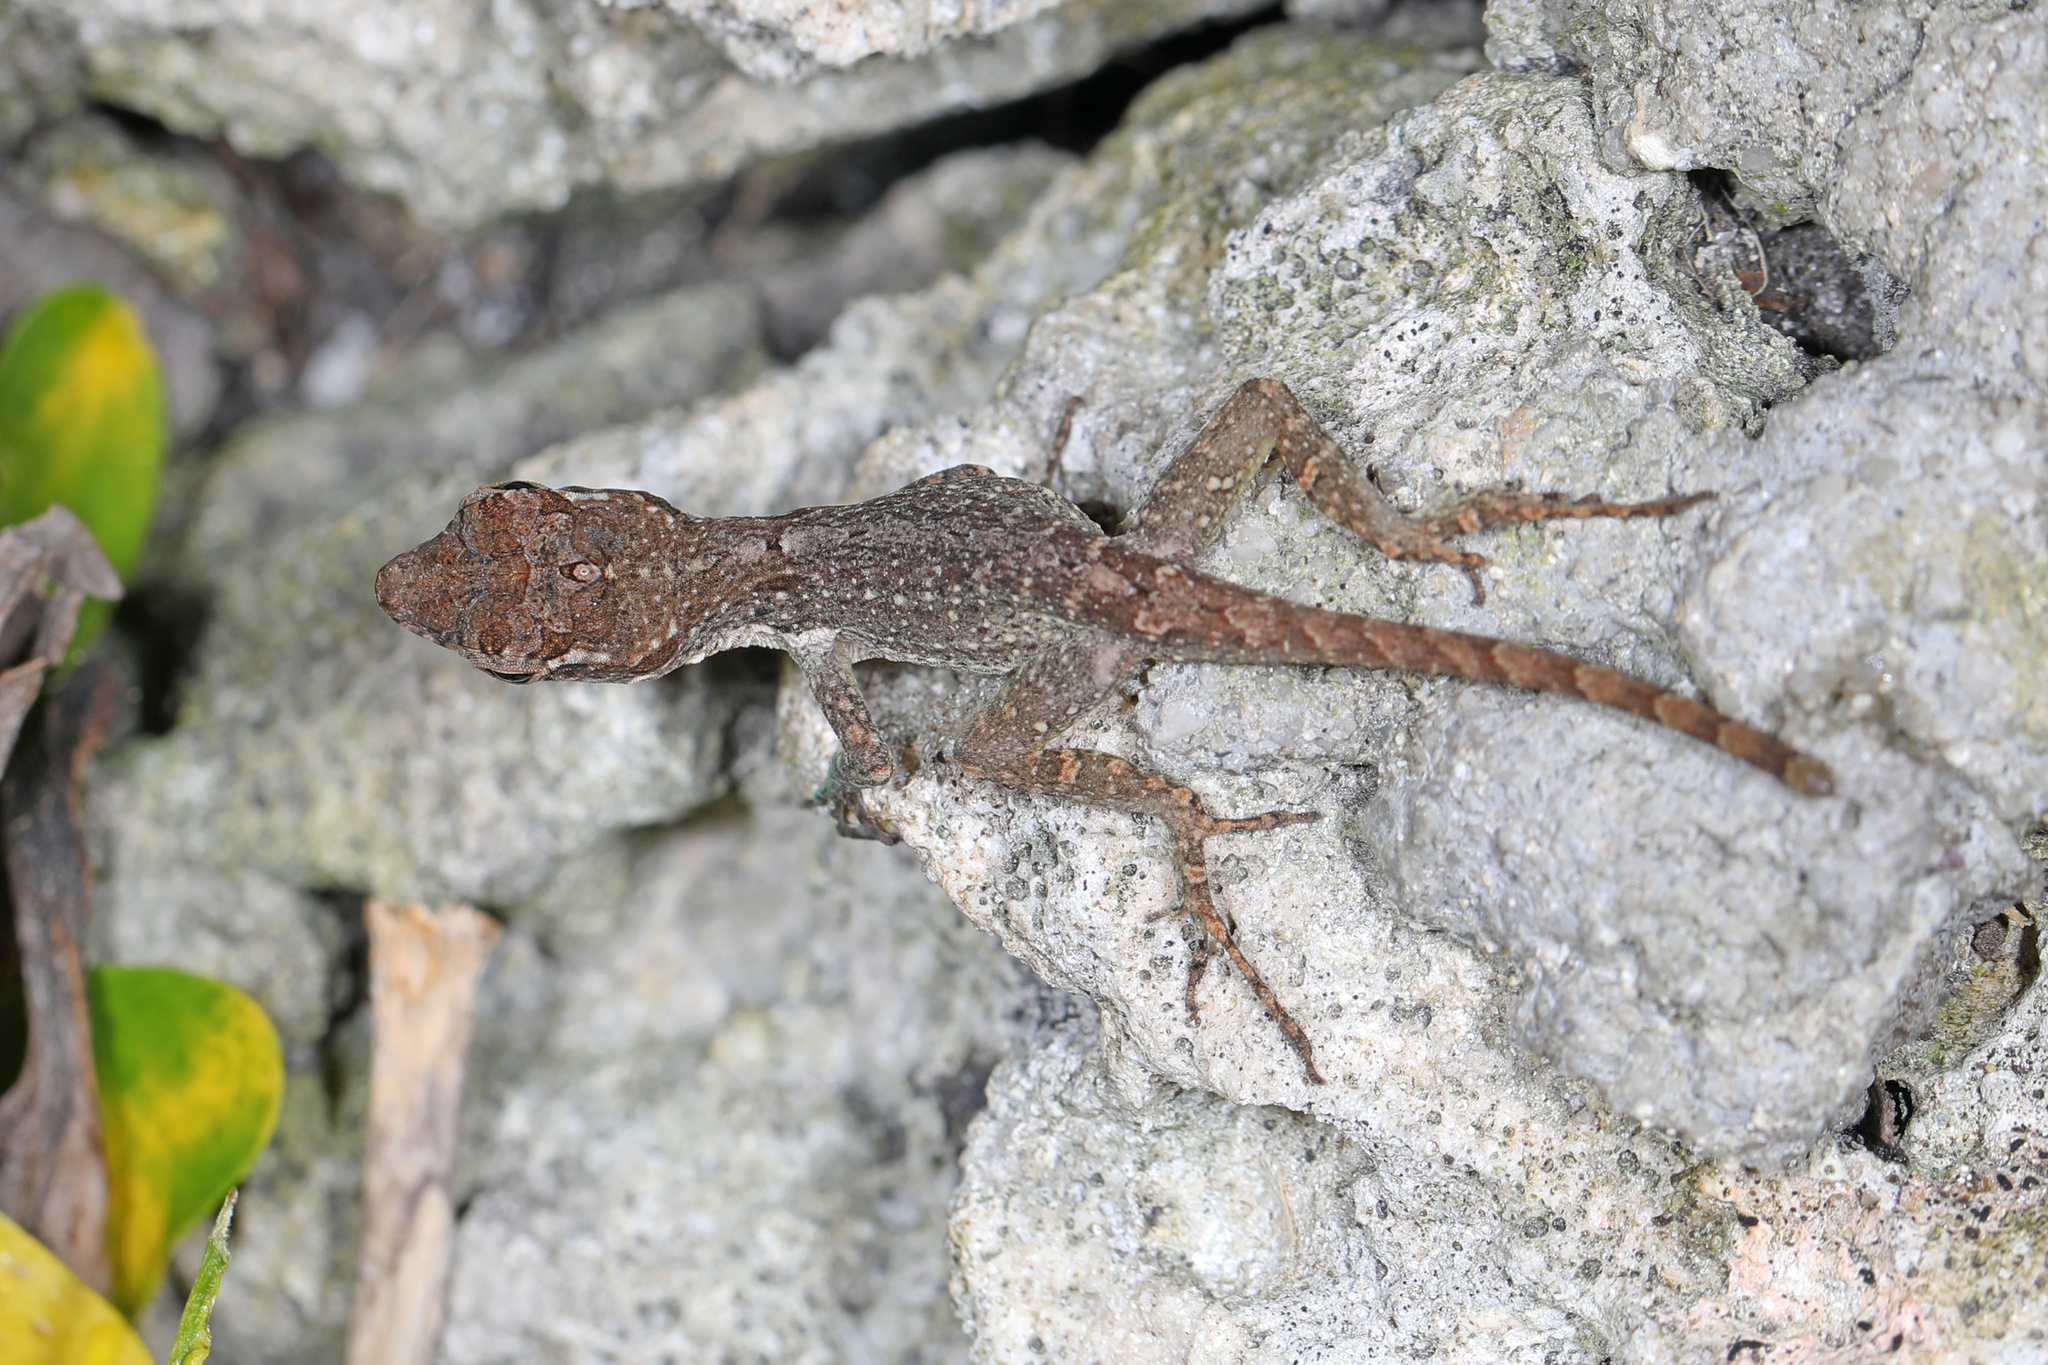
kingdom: Animalia
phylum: Chordata
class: Squamata
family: Dactyloidae
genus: Anolis
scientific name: Anolis cristatellus
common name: Crested anole
